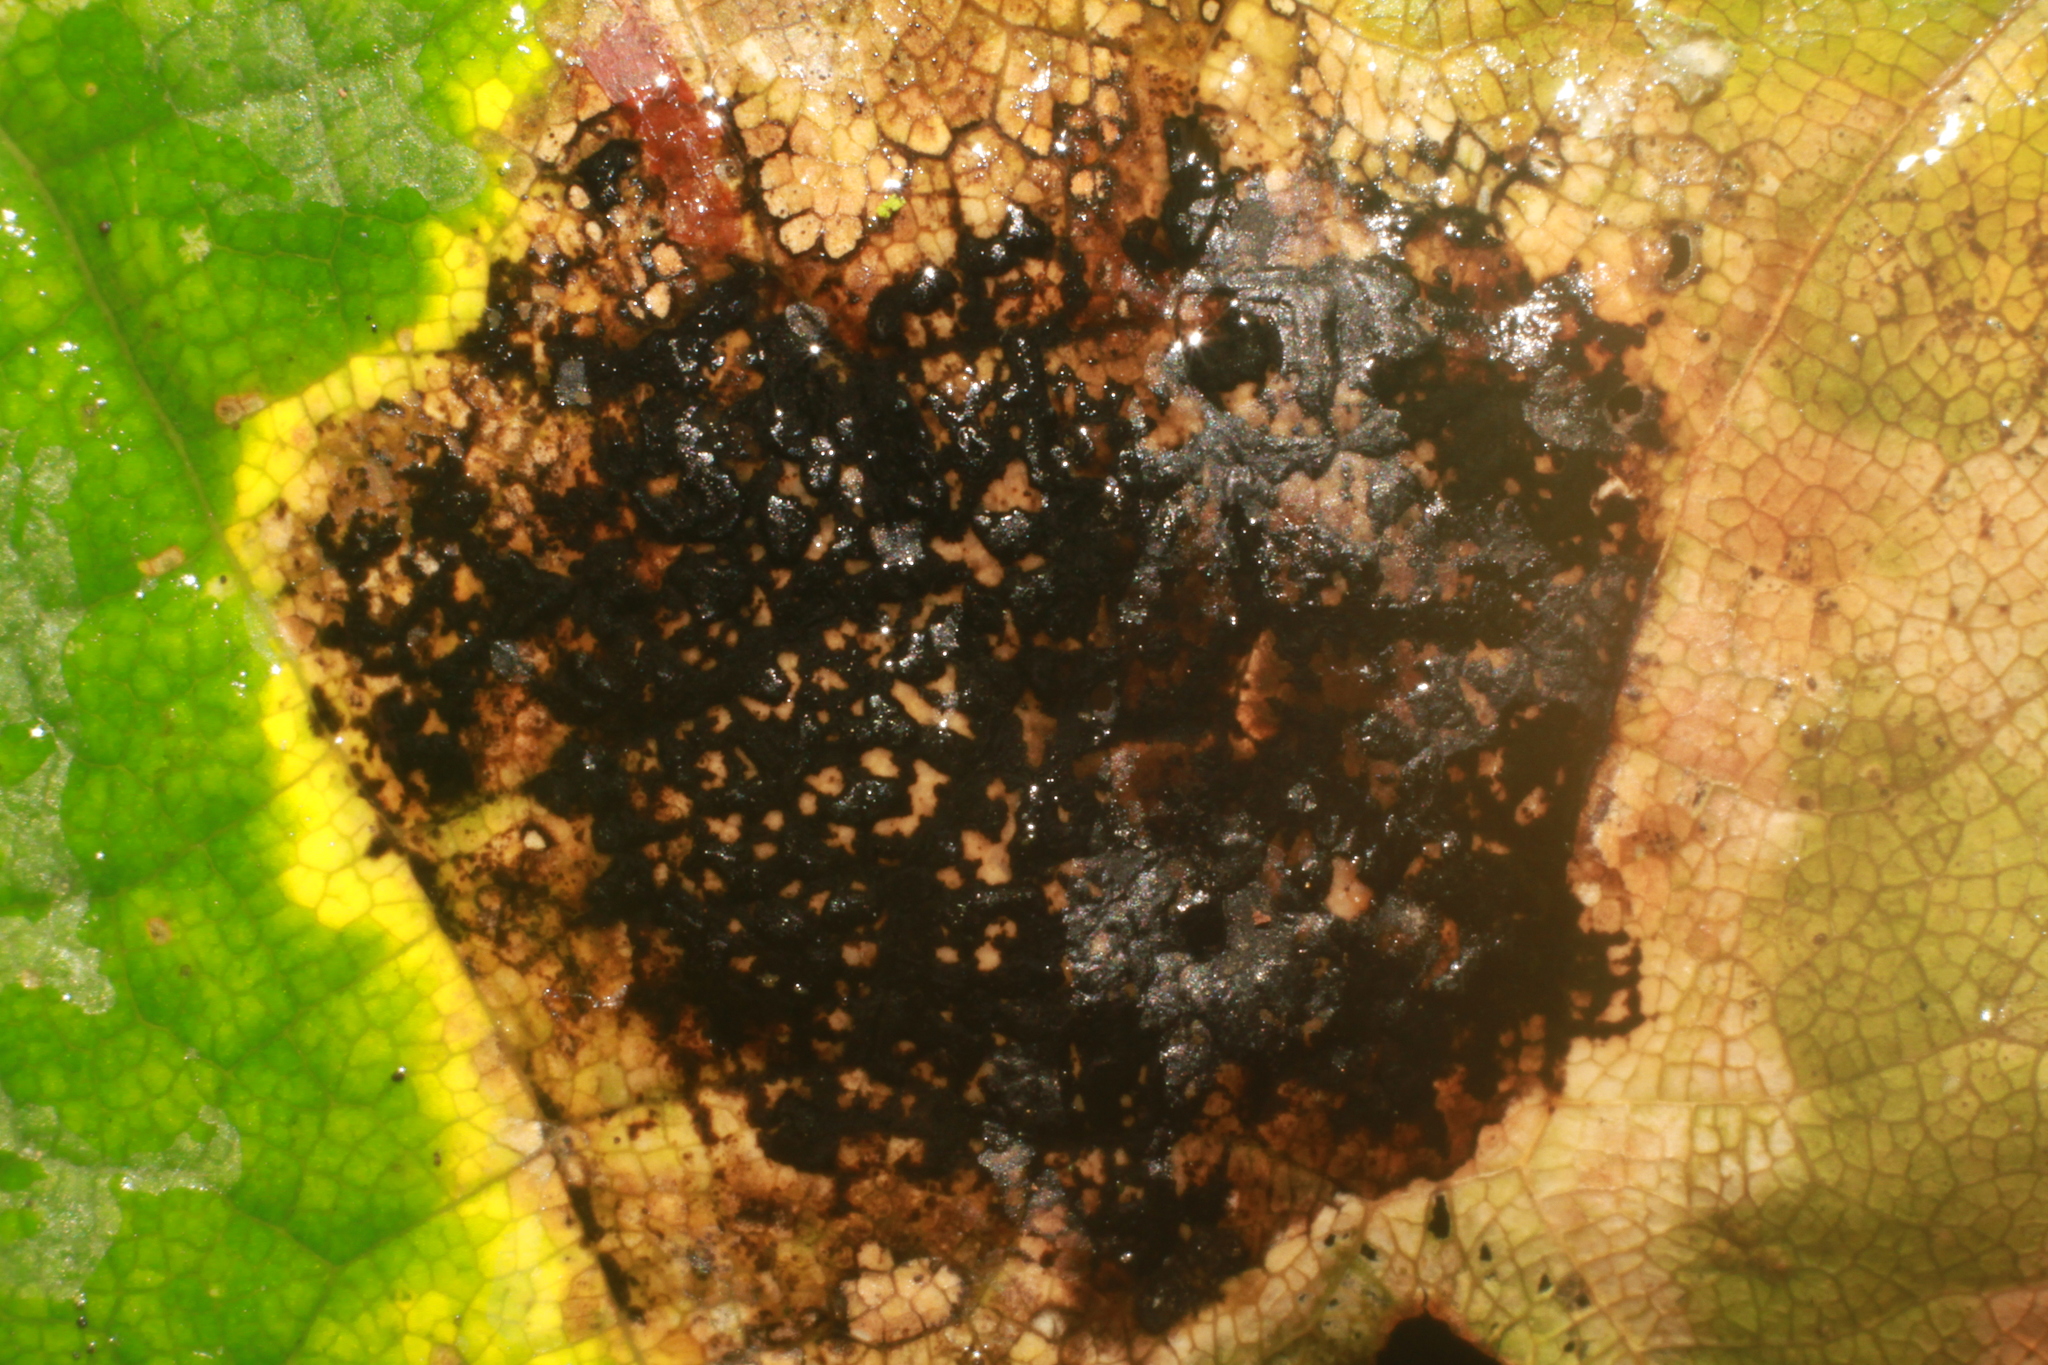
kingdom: Fungi
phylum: Ascomycota
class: Leotiomycetes
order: Rhytismatales
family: Rhytismataceae
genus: Rhytisma
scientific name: Rhytisma acerinum
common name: European tar spot
